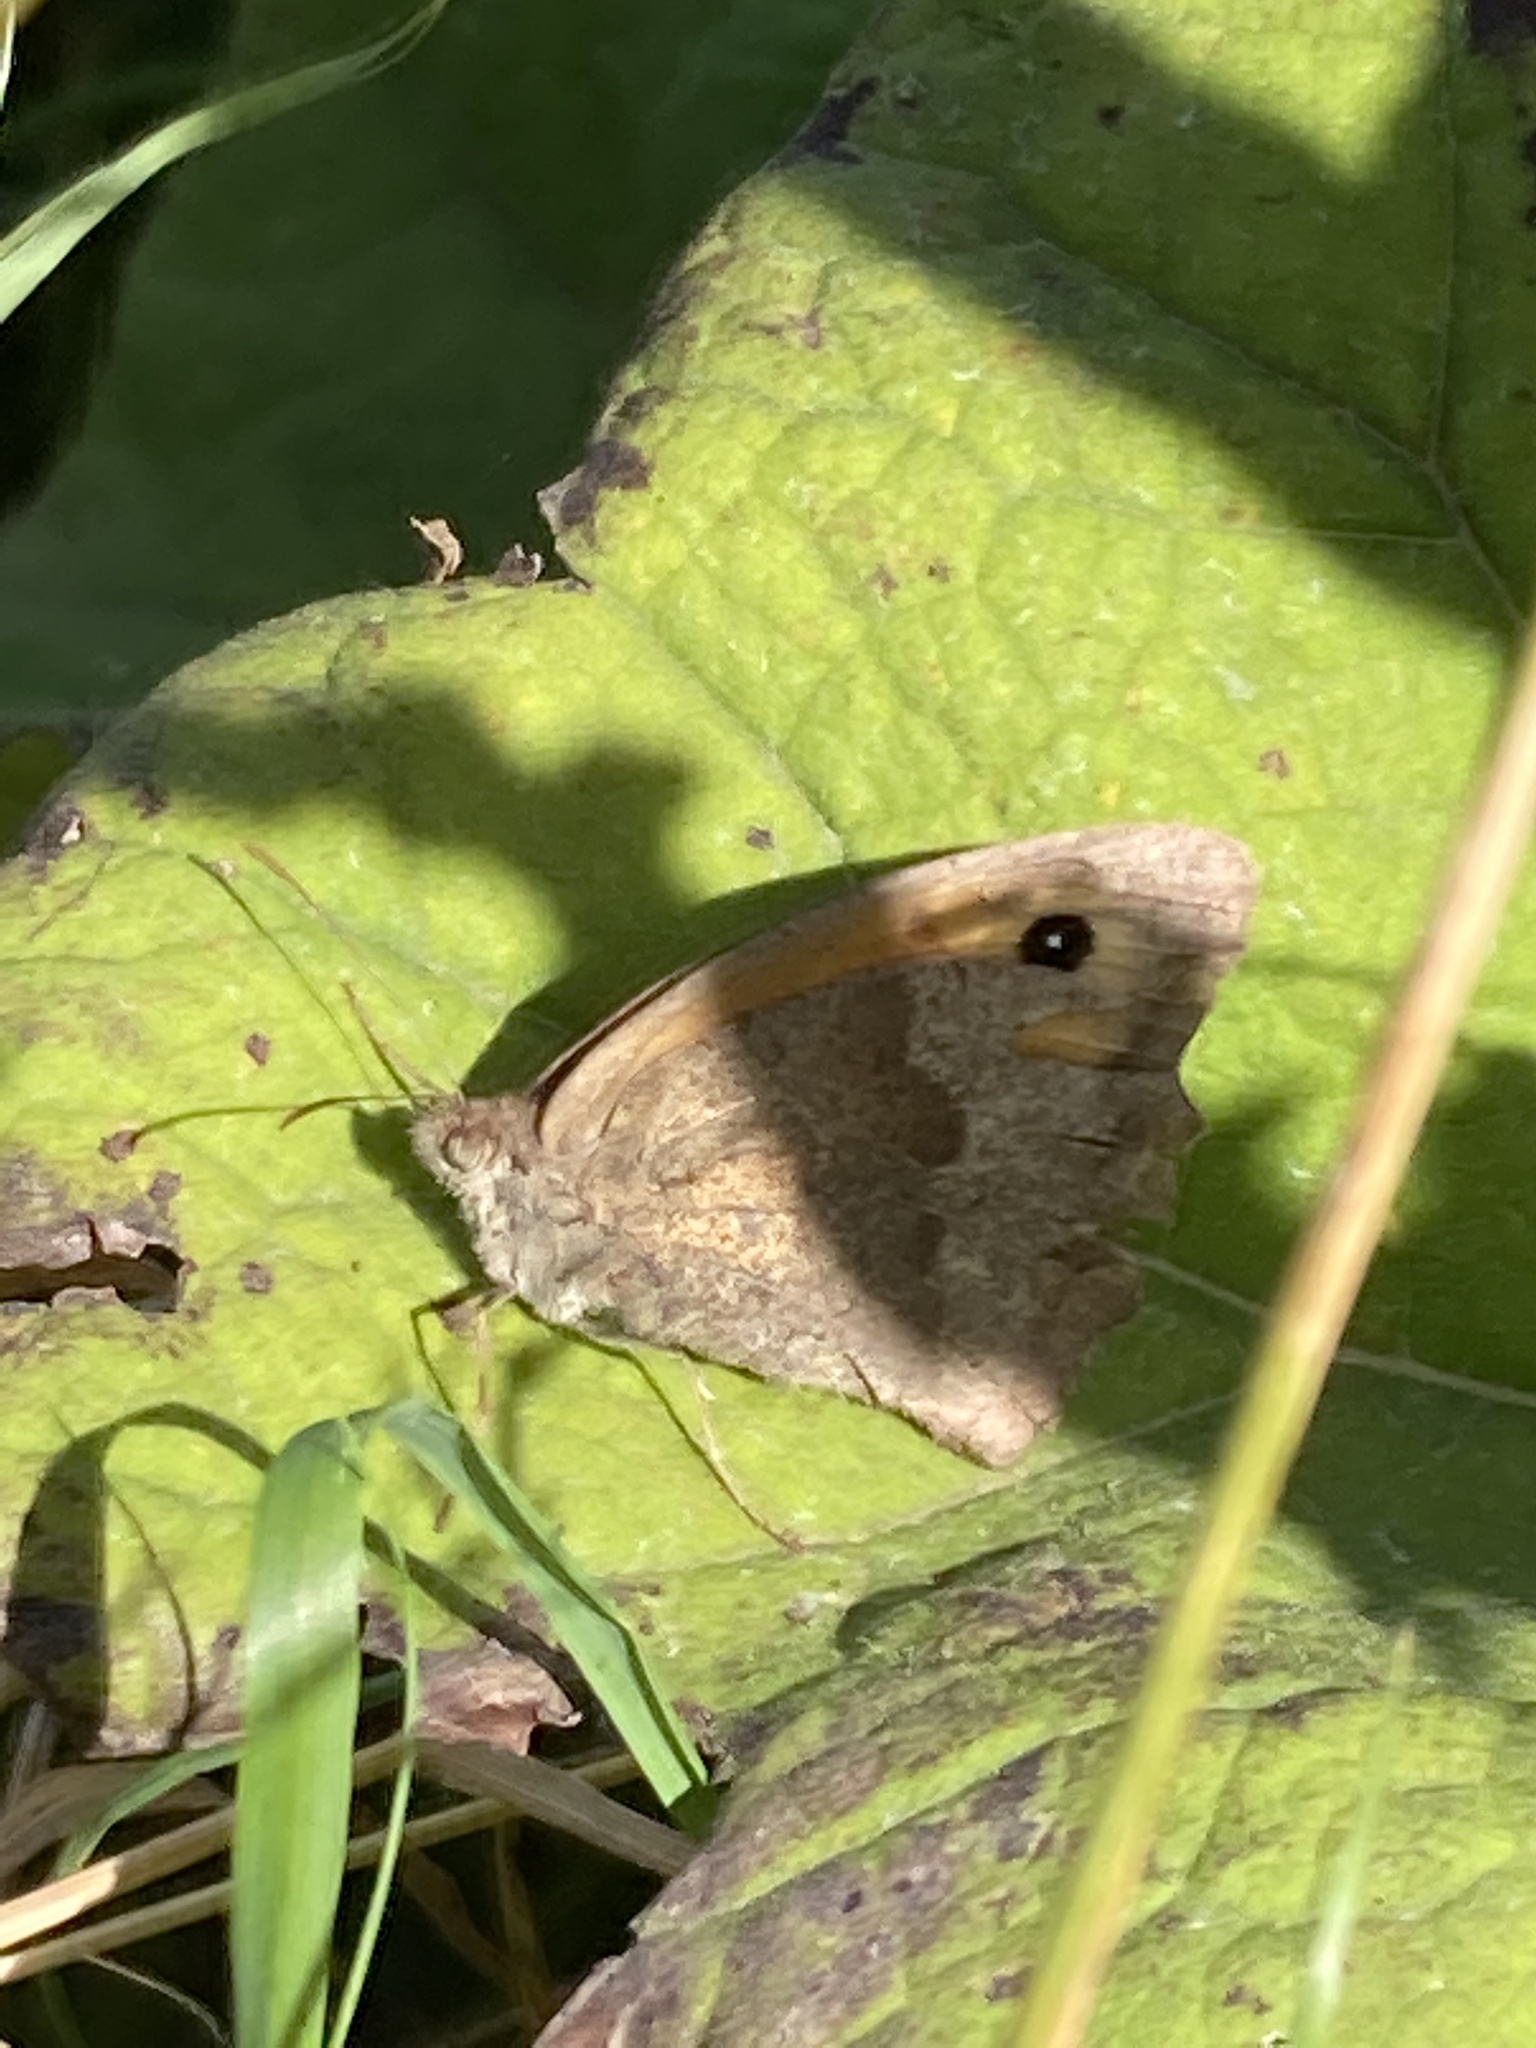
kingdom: Animalia
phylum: Arthropoda
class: Insecta
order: Lepidoptera
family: Nymphalidae
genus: Maniola
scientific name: Maniola jurtina
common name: Meadow brown
